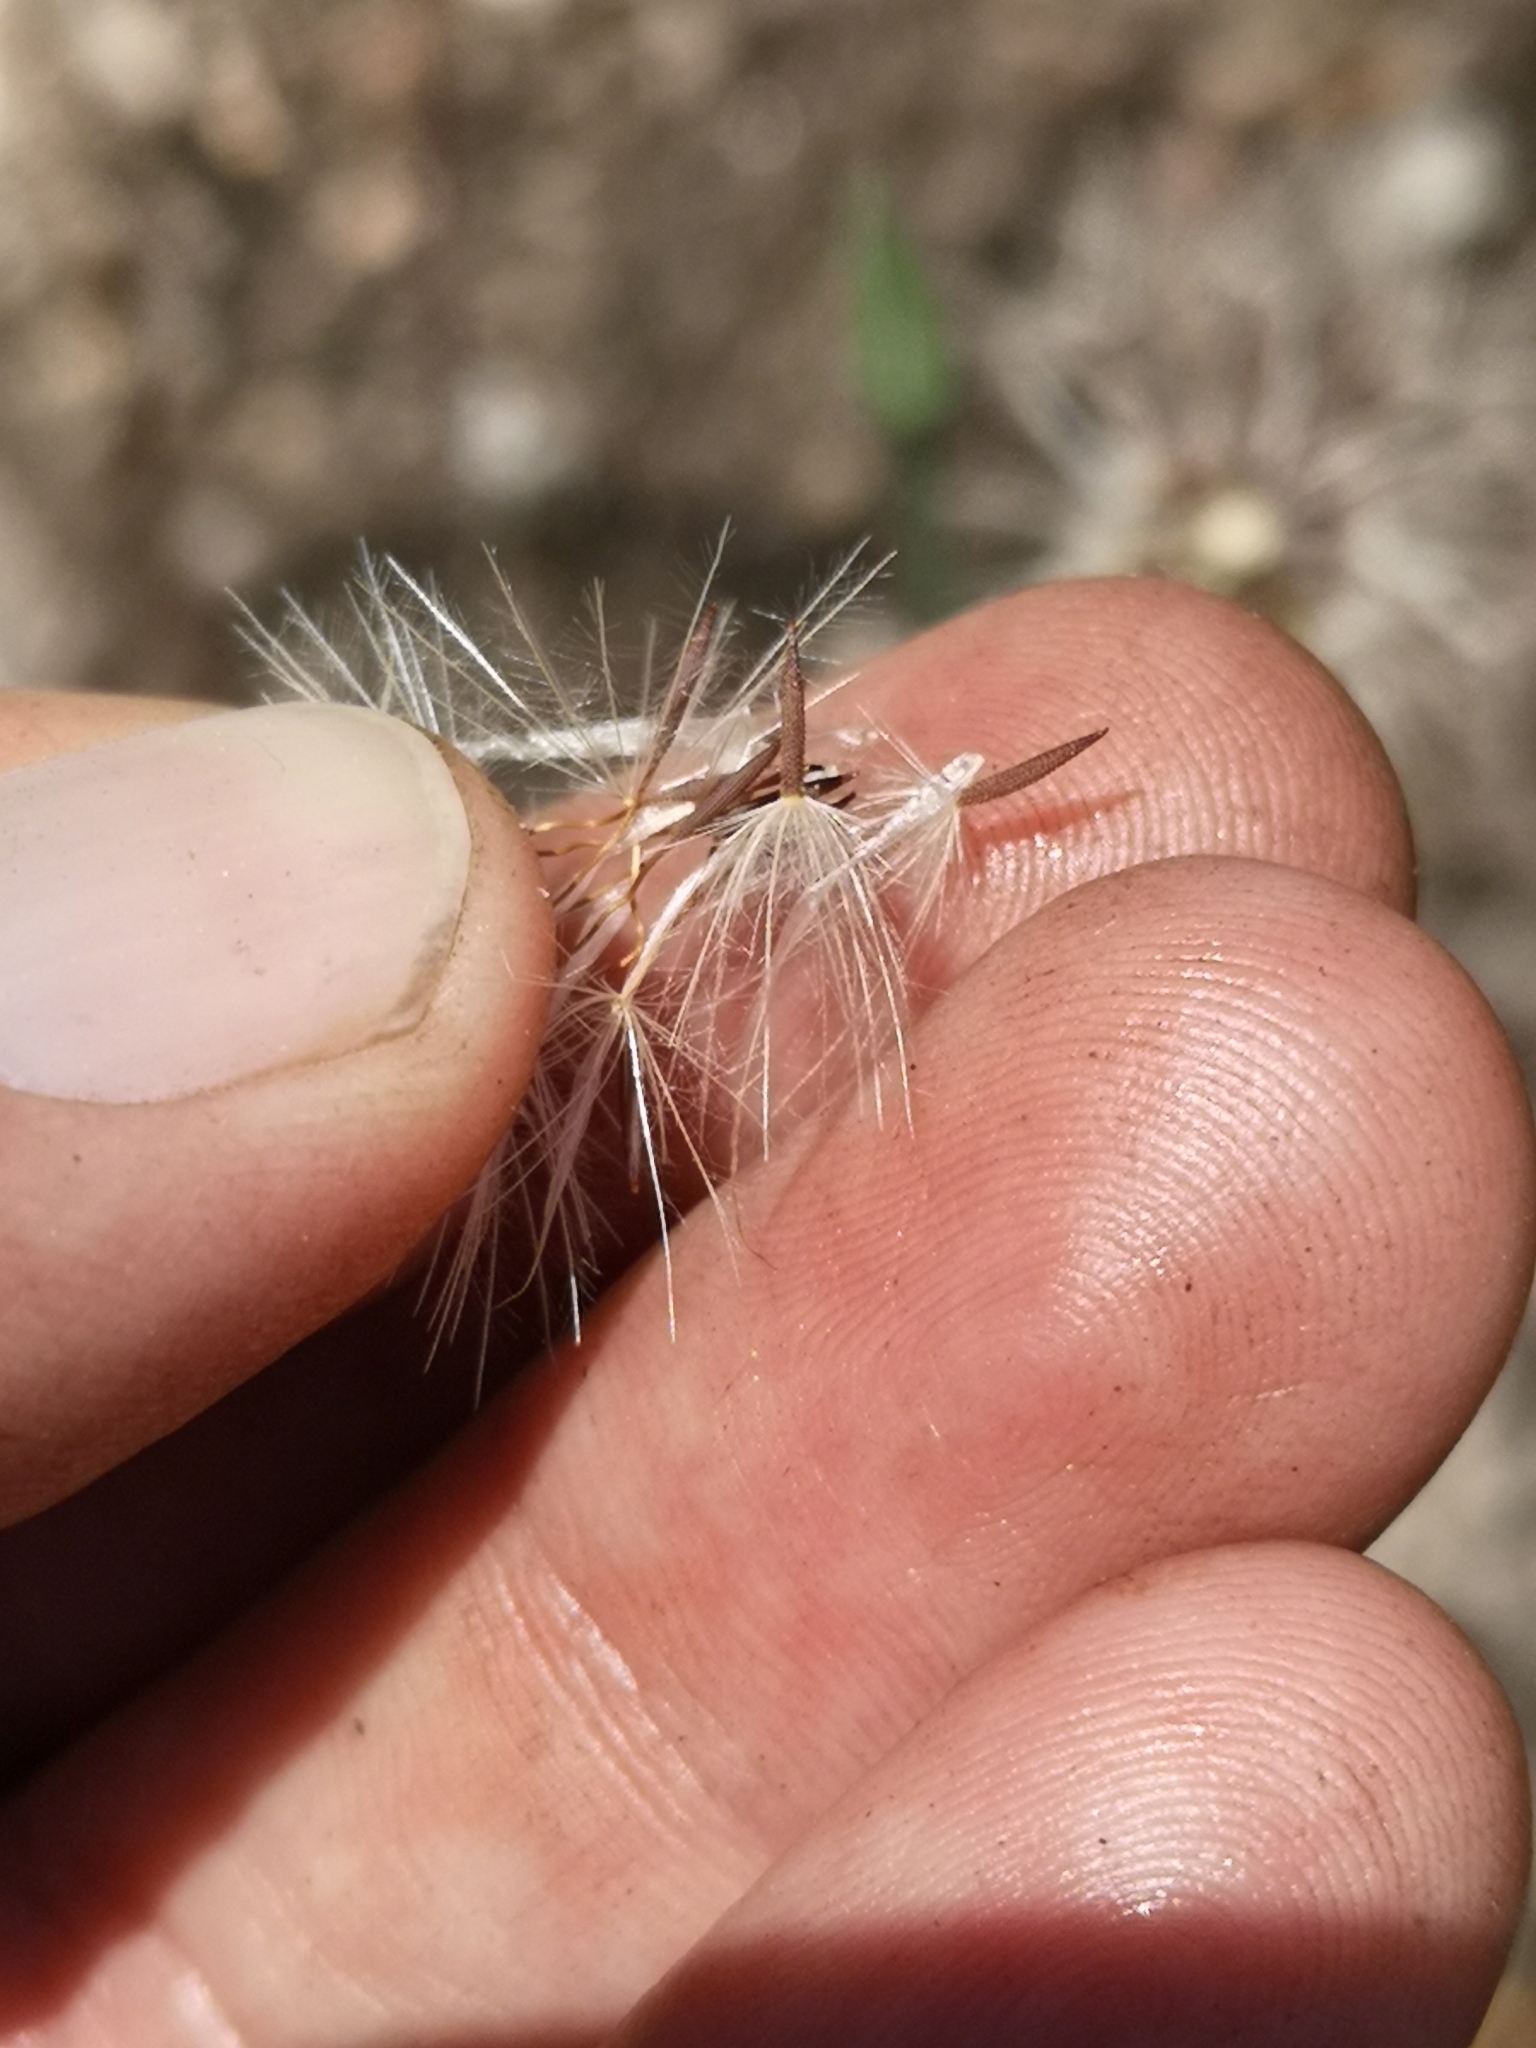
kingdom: Plantae
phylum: Tracheophyta
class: Magnoliopsida
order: Asterales
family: Asteraceae
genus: Hypochaeris
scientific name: Hypochaeris glabra
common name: Smooth catsear
